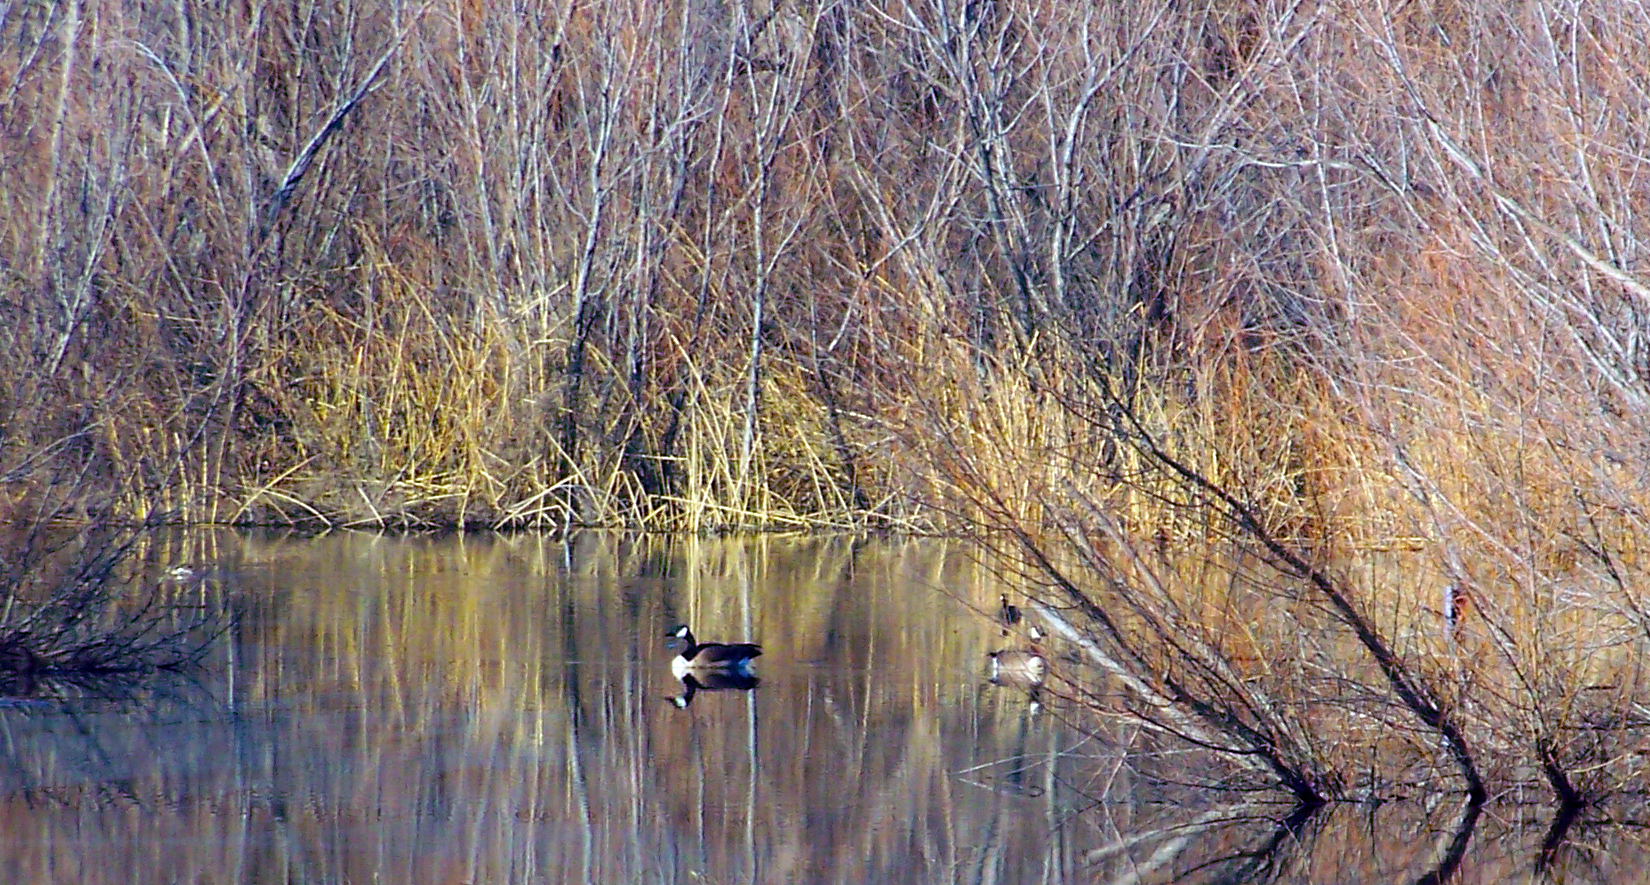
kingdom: Animalia
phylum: Chordata
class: Aves
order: Anseriformes
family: Anatidae
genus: Branta
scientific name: Branta canadensis
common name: Canada goose
